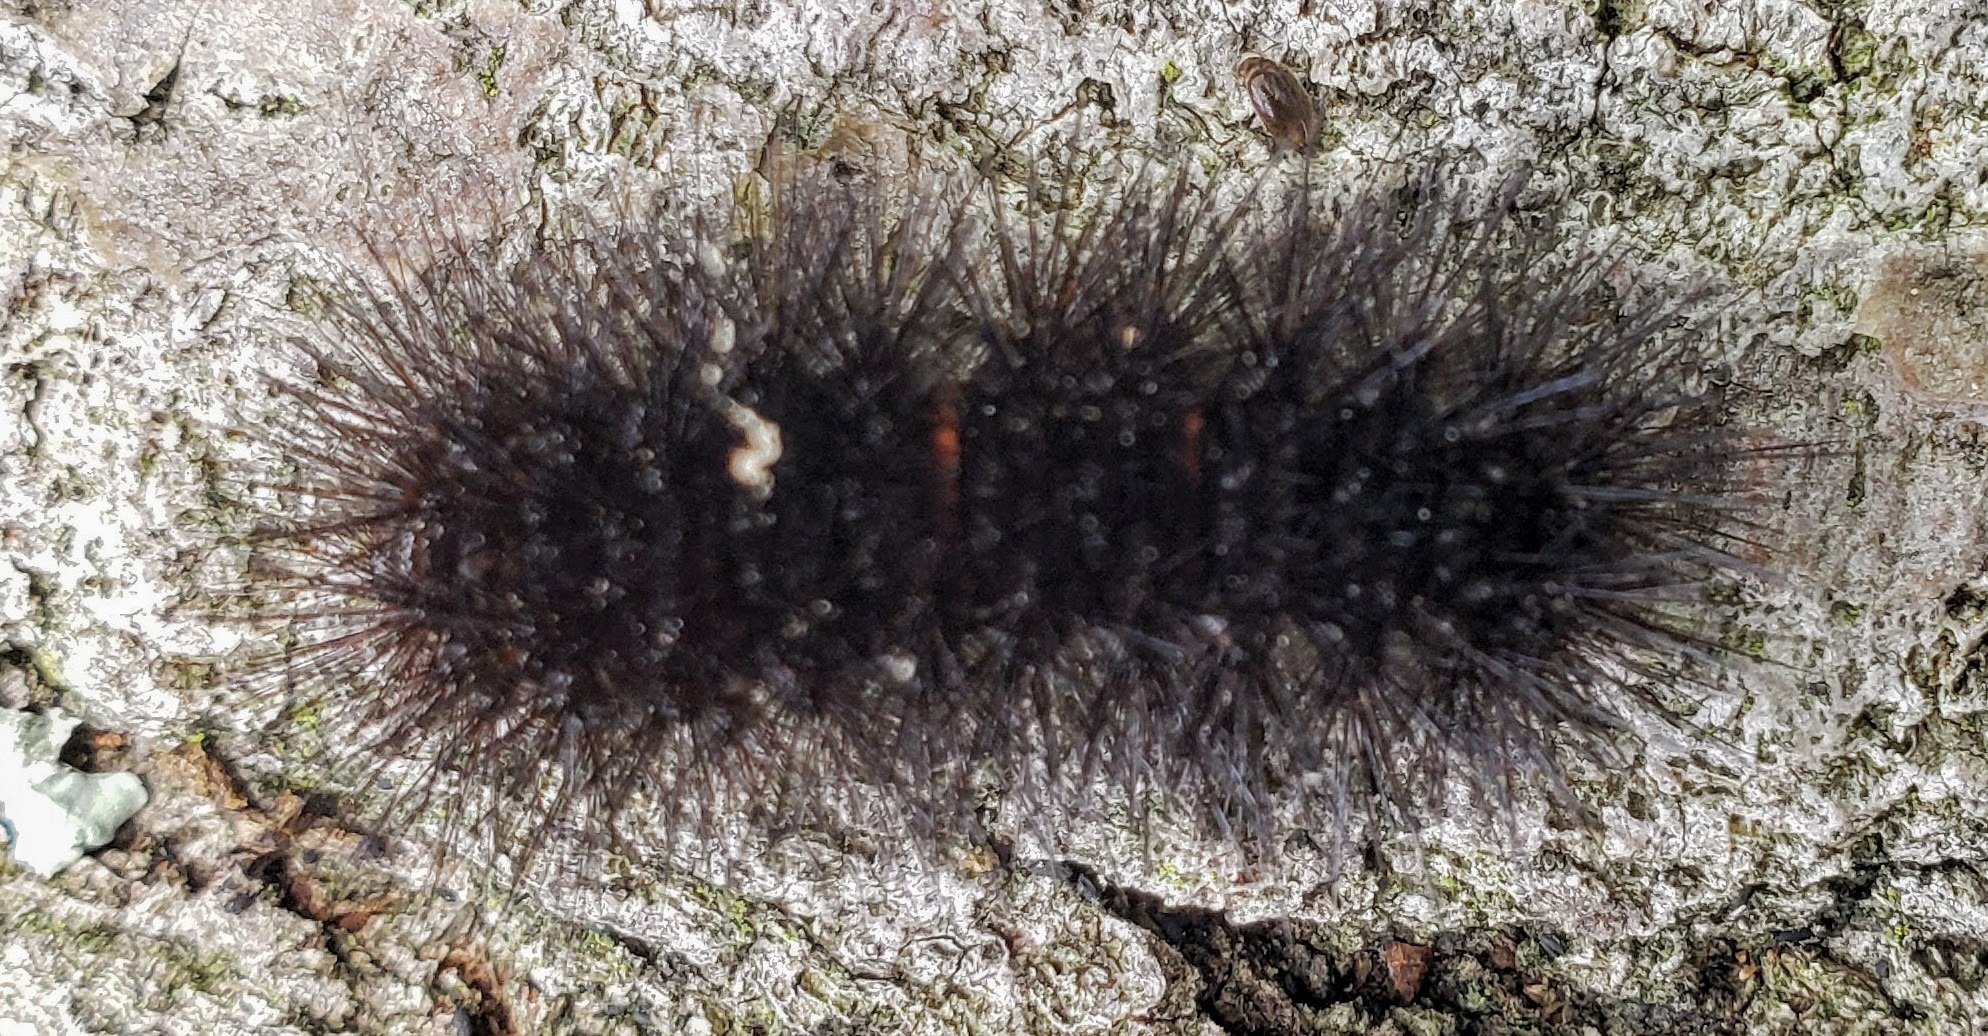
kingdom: Animalia
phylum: Arthropoda
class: Insecta
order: Lepidoptera
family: Erebidae
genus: Hypercompe
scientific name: Hypercompe scribonia
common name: Giant leopard moth
